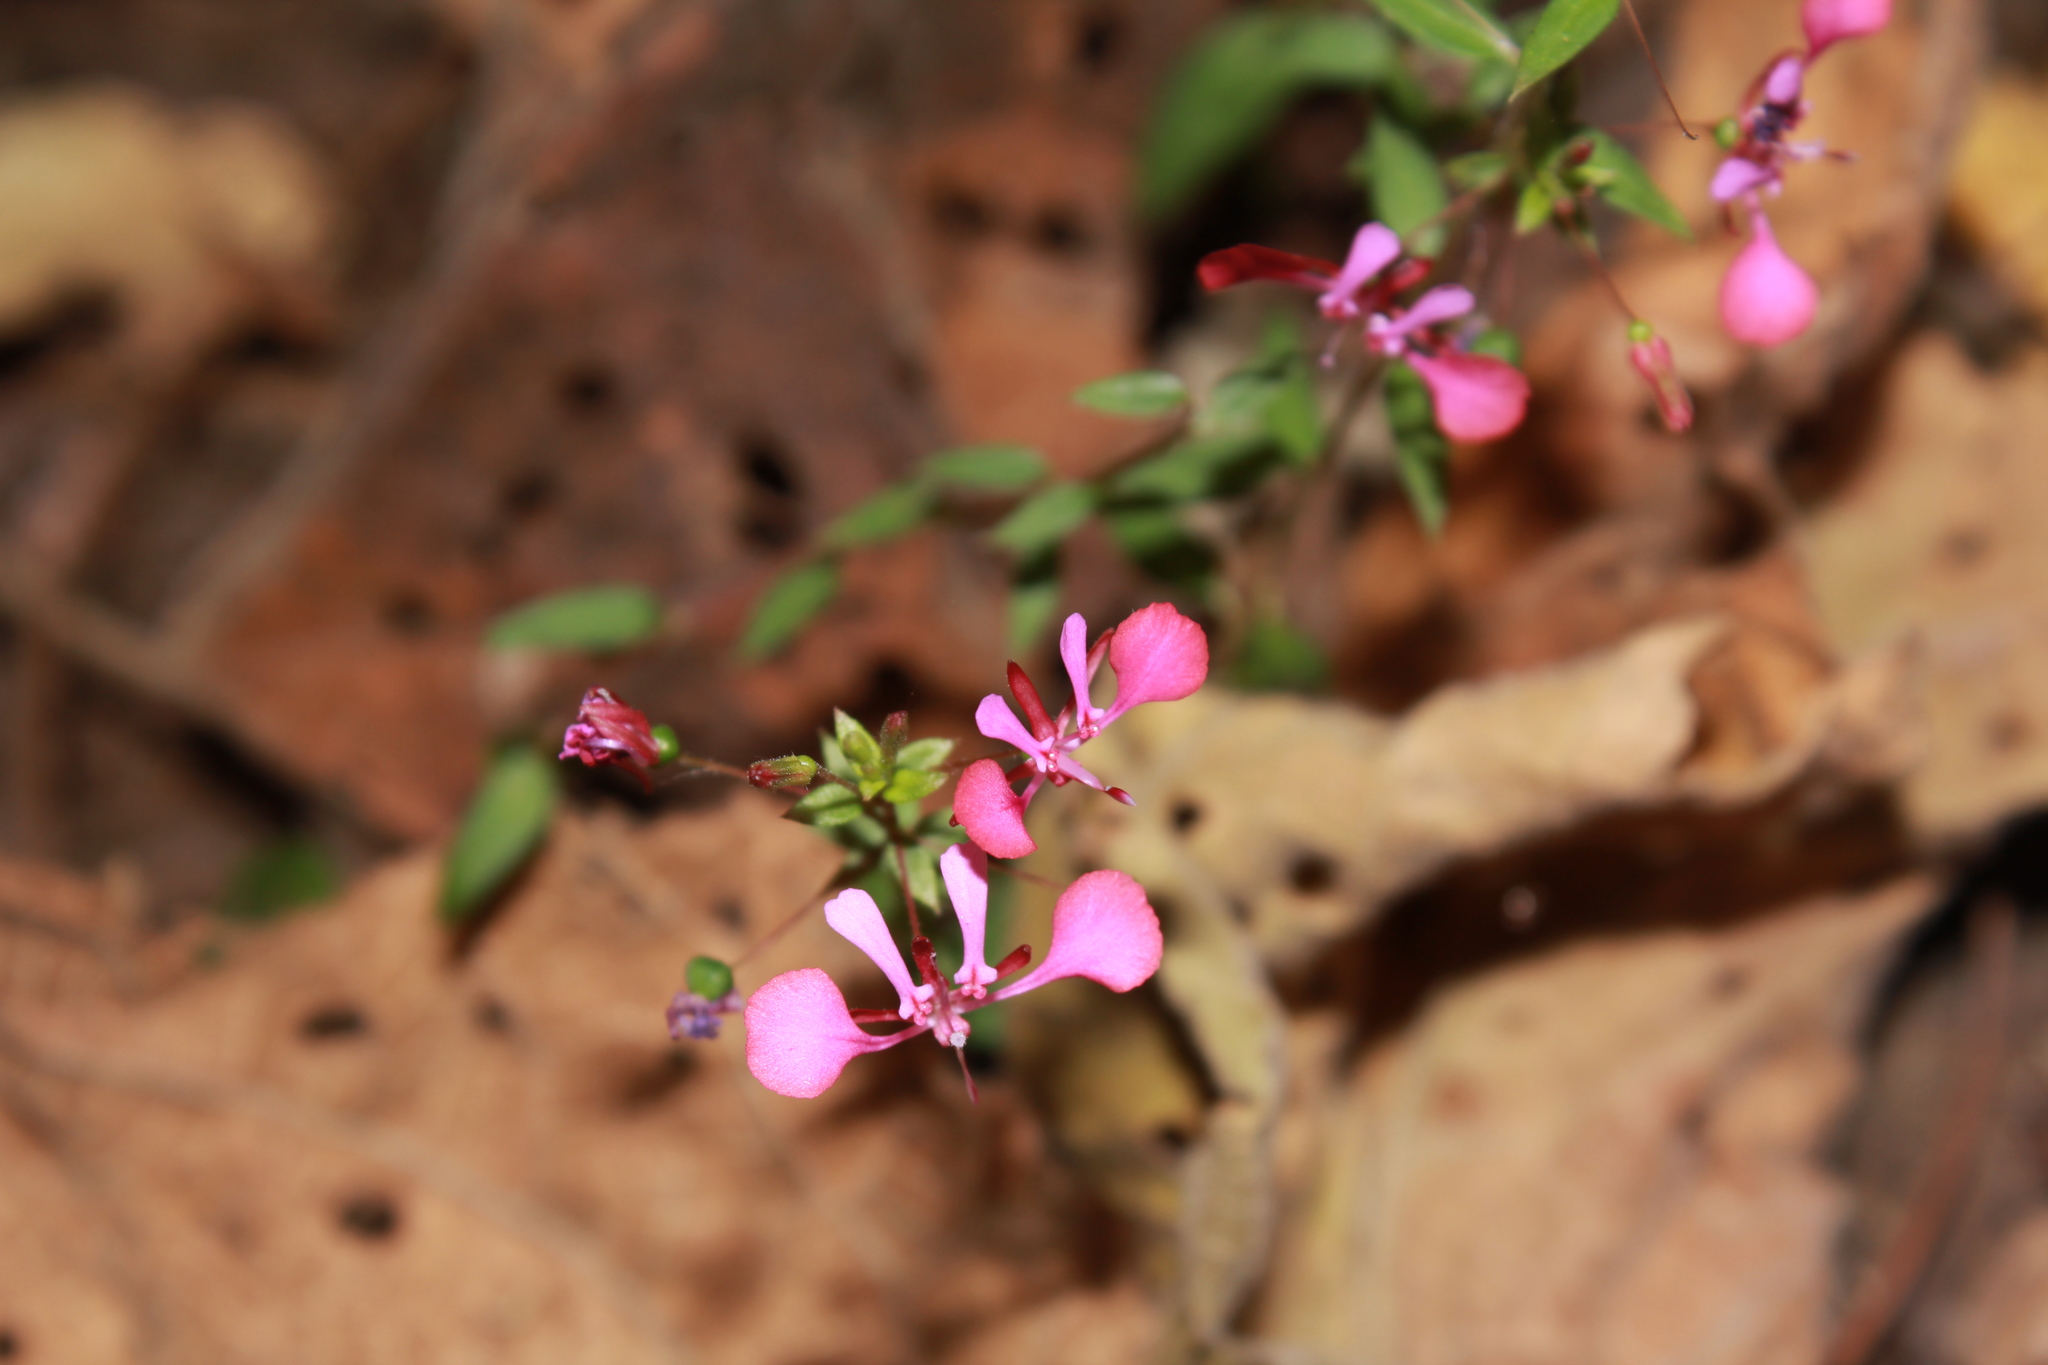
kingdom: Plantae
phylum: Tracheophyta
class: Magnoliopsida
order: Myrtales
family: Onagraceae
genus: Lopezia
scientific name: Lopezia racemosa
